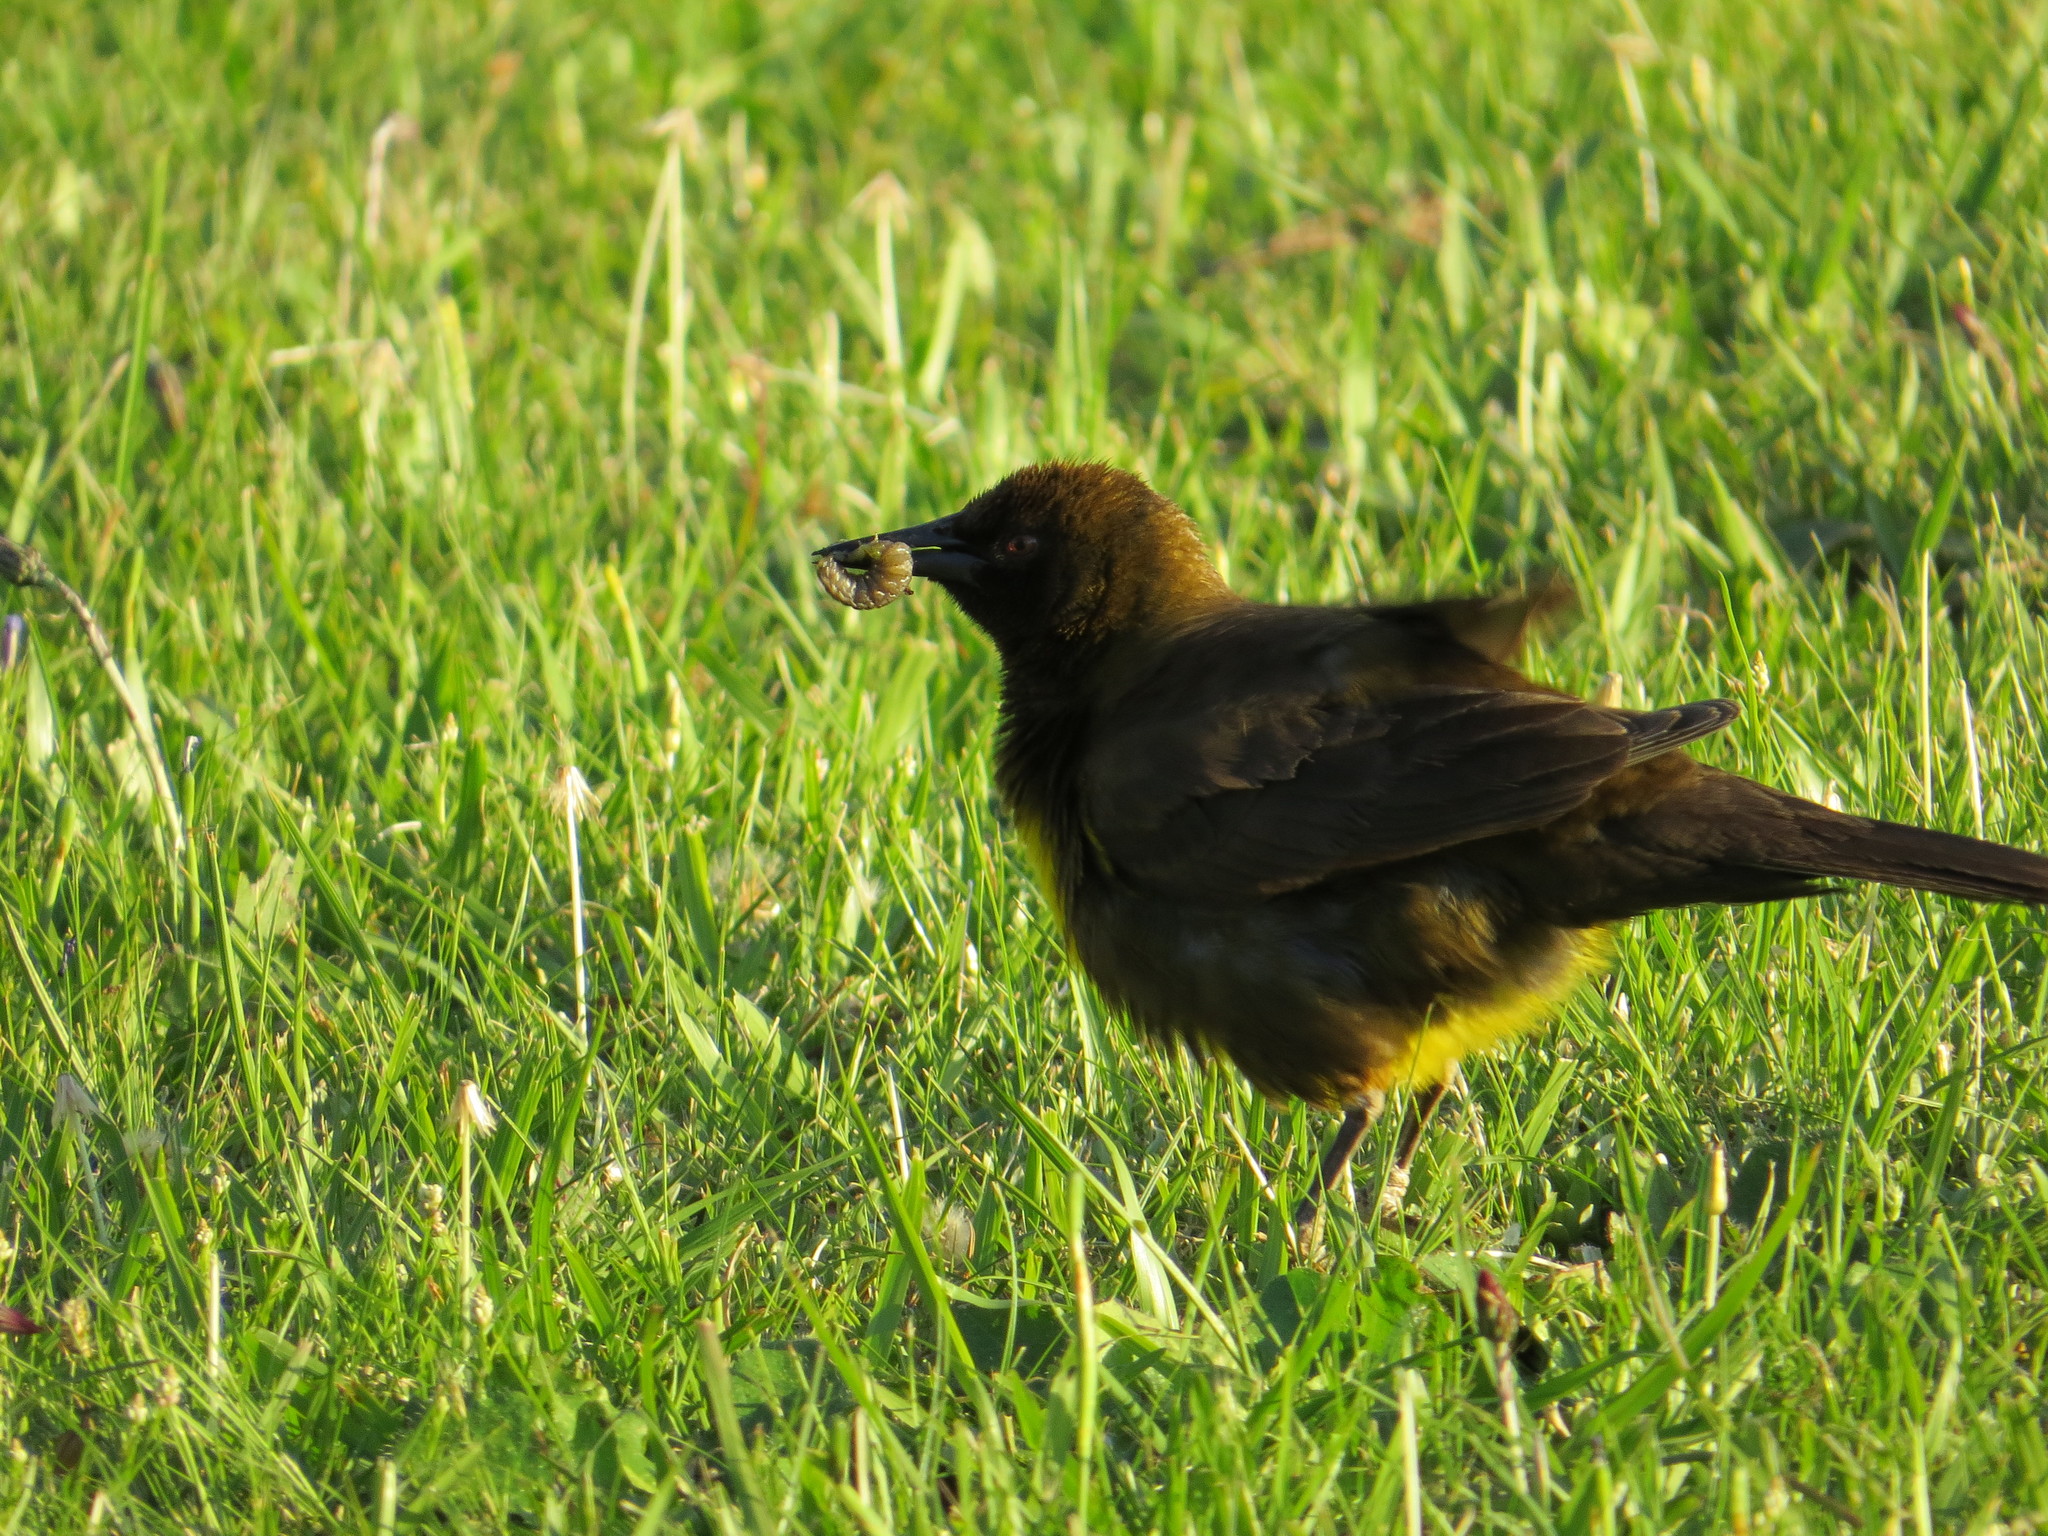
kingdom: Animalia
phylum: Chordata
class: Aves
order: Passeriformes
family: Icteridae
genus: Pseudoleistes
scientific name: Pseudoleistes virescens
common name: Brown-and-yellow marshbird
